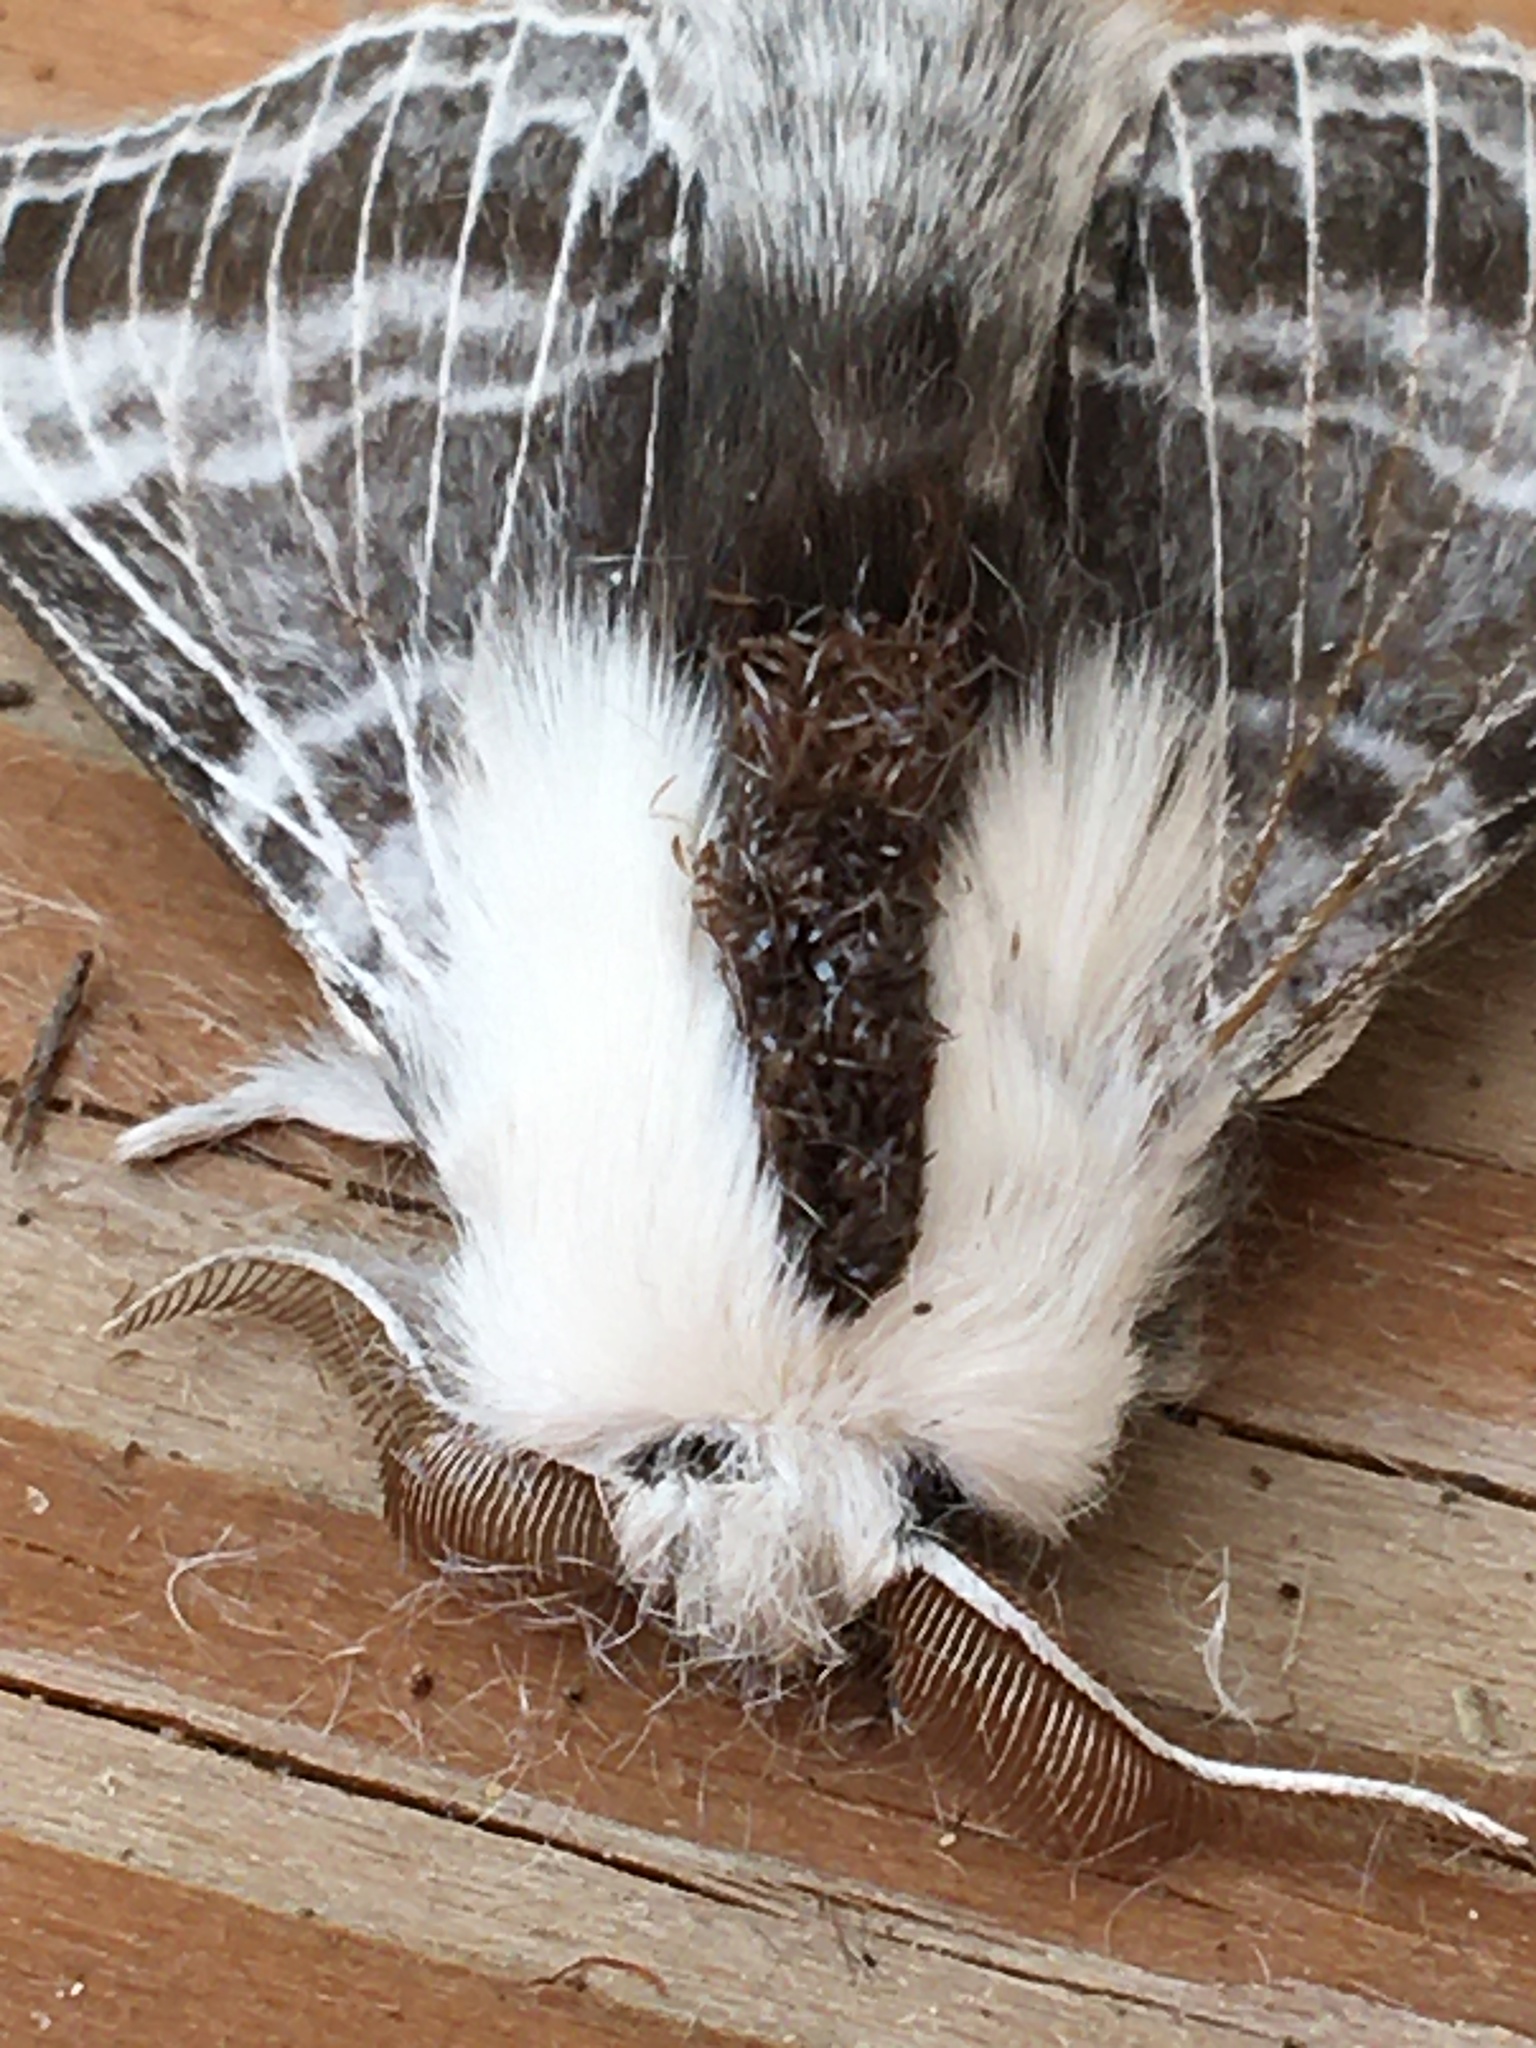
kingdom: Animalia
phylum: Arthropoda
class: Insecta
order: Lepidoptera
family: Lasiocampidae
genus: Tolype
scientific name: Tolype velleda
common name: Large tolype moth
